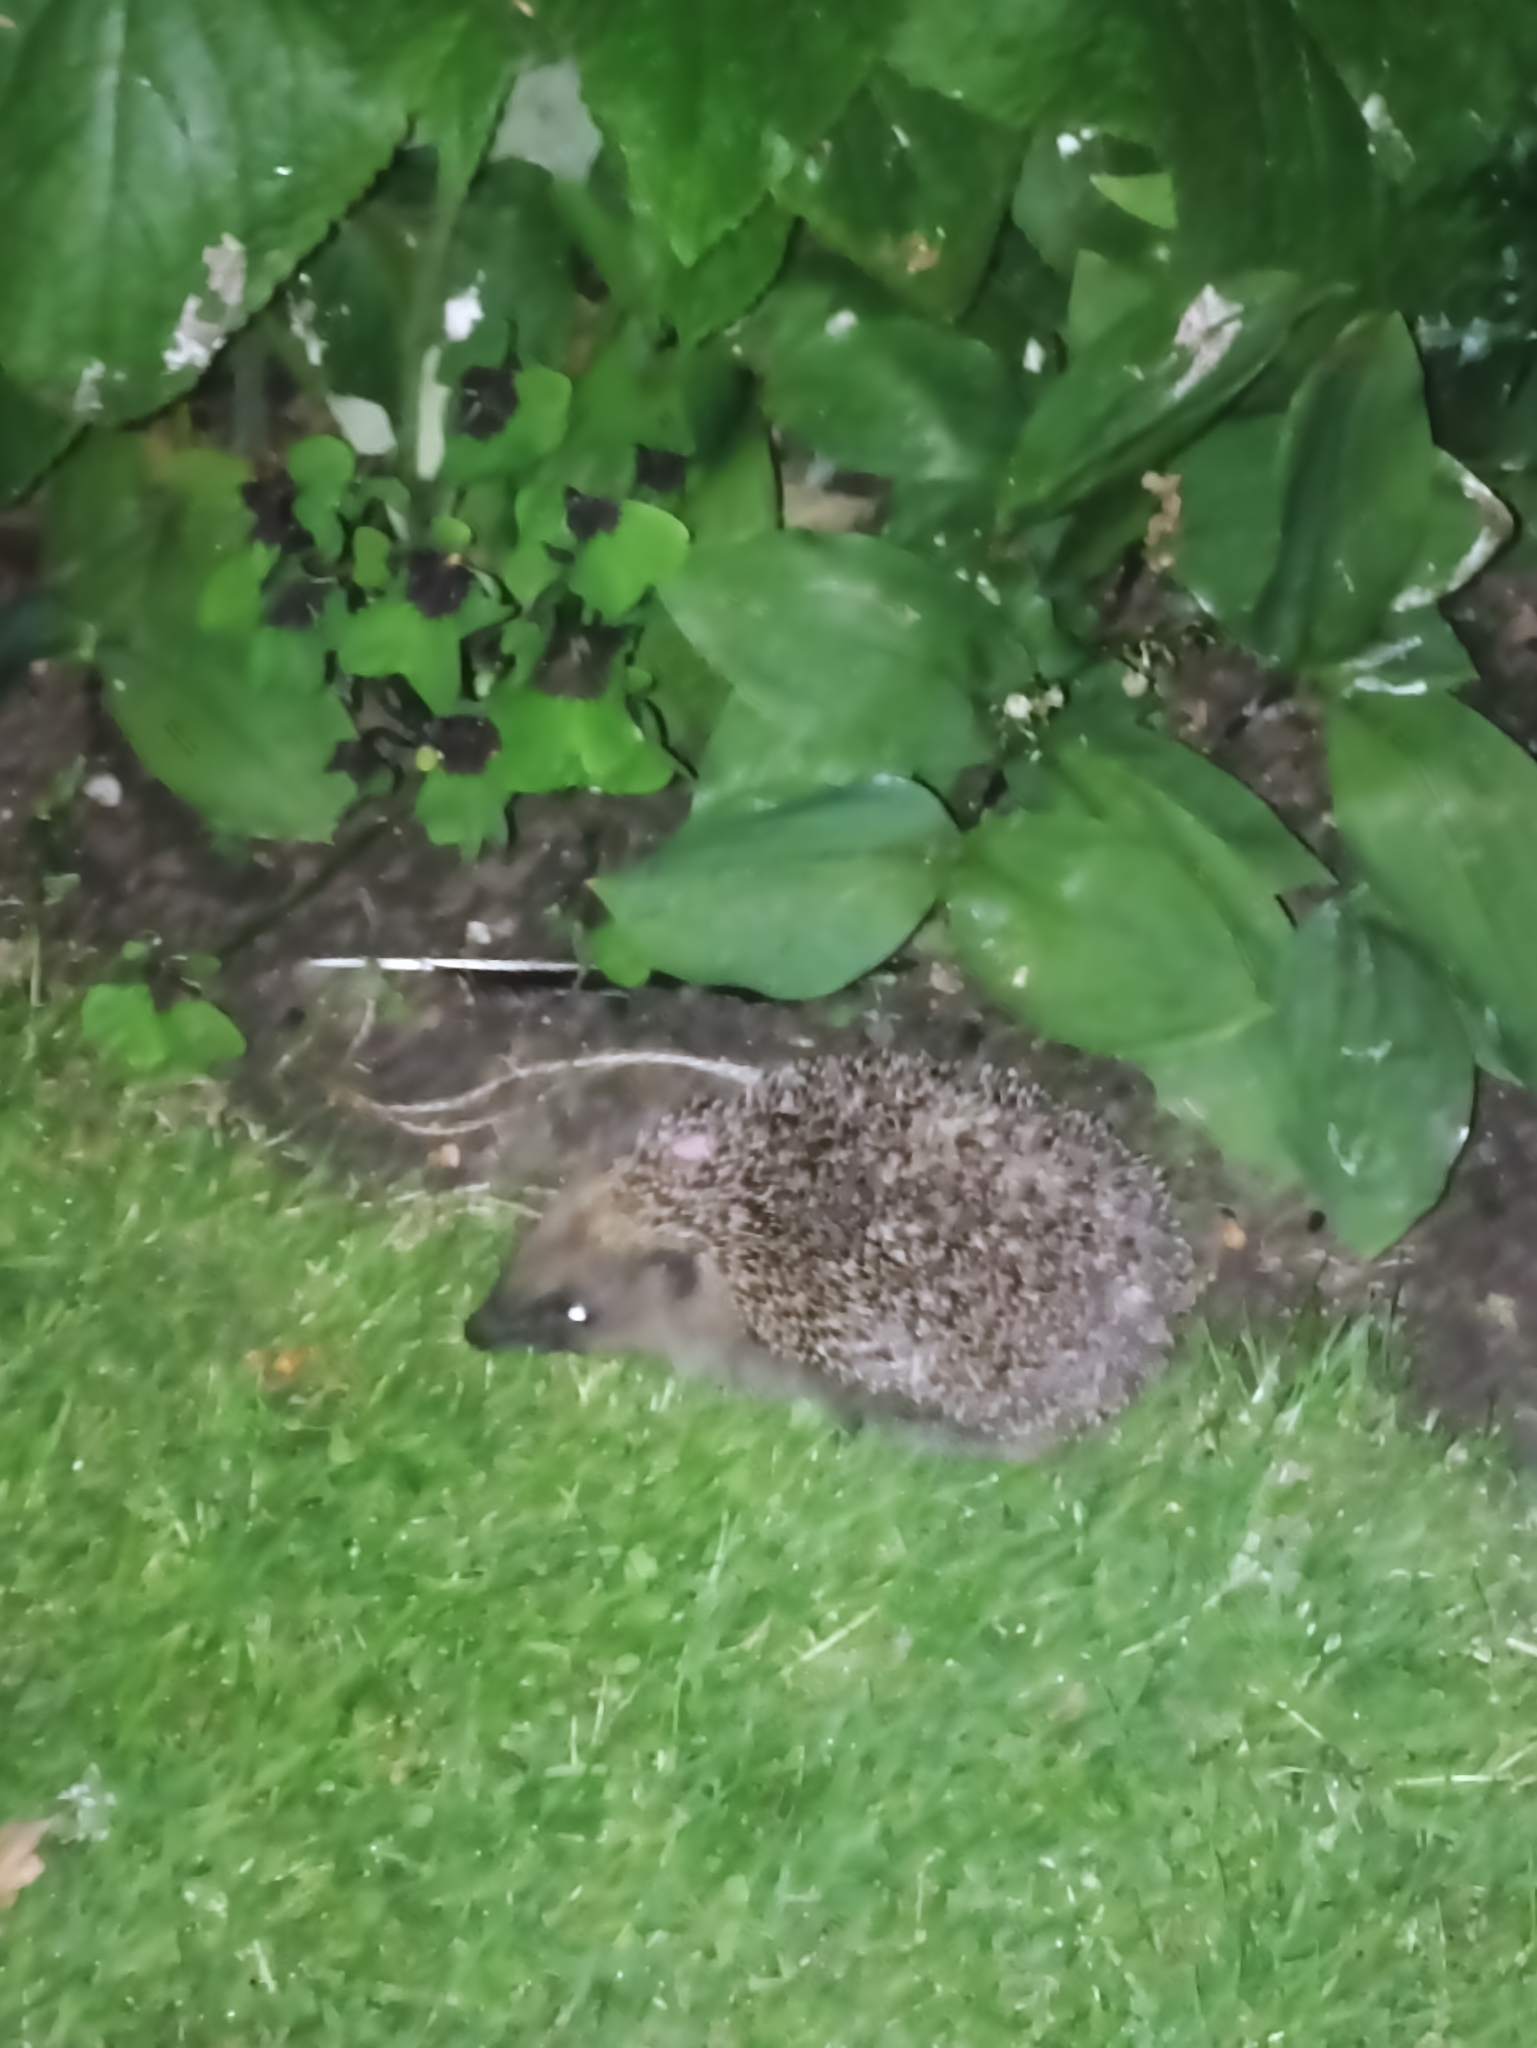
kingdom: Animalia
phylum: Chordata
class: Mammalia
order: Erinaceomorpha
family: Erinaceidae
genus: Erinaceus
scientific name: Erinaceus europaeus
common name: West european hedgehog
